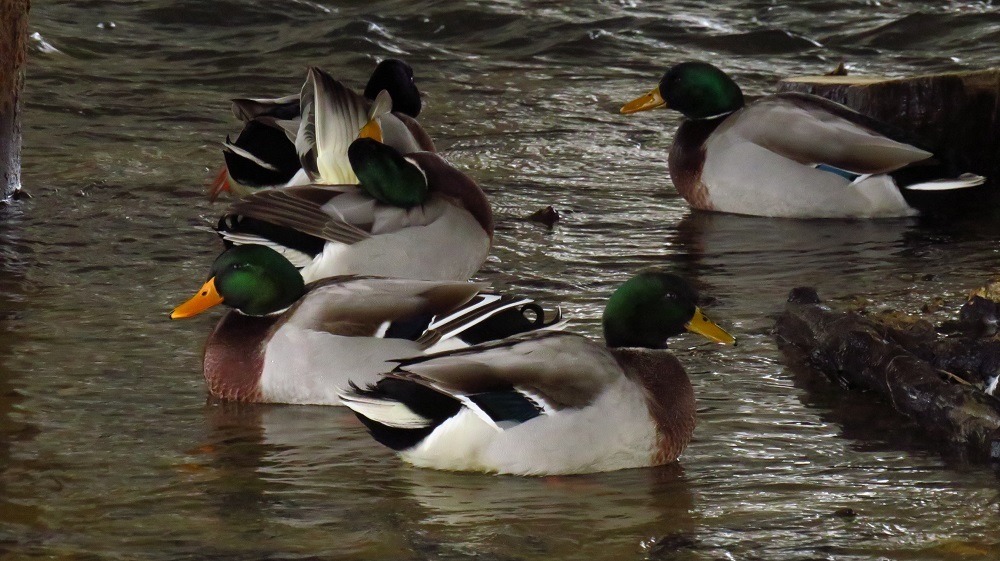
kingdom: Animalia
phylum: Chordata
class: Aves
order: Anseriformes
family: Anatidae
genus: Anas
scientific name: Anas platyrhynchos
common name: Mallard
